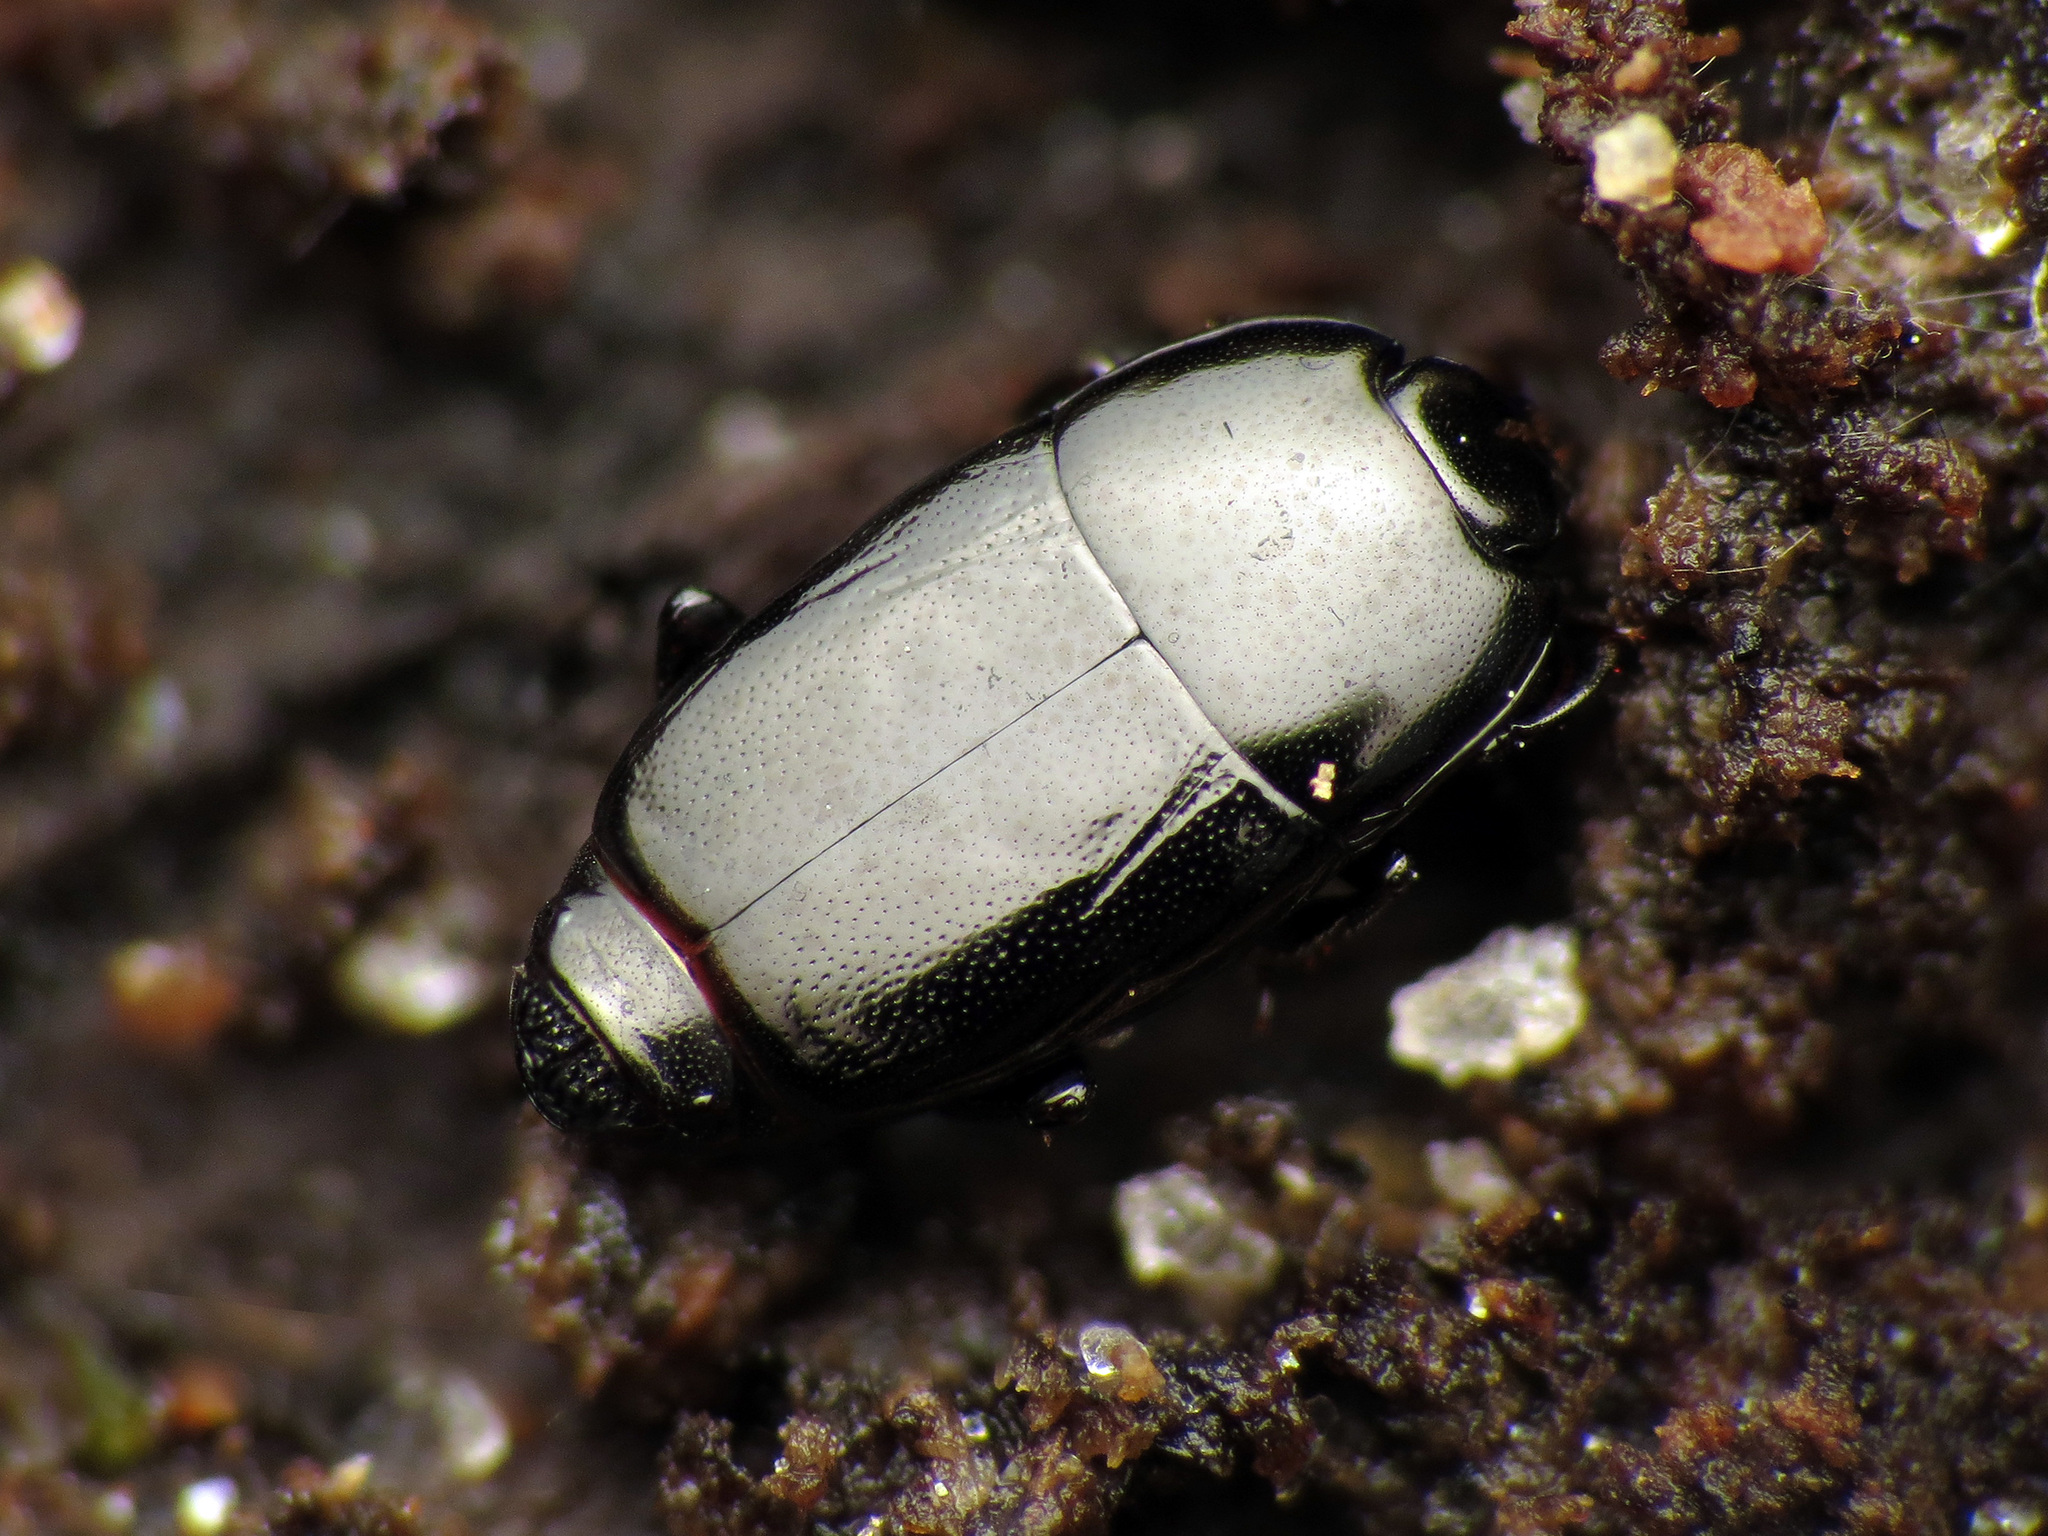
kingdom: Animalia
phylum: Arthropoda
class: Insecta
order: Coleoptera
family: Histeridae
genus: Platylomalus
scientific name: Platylomalus aequalis
